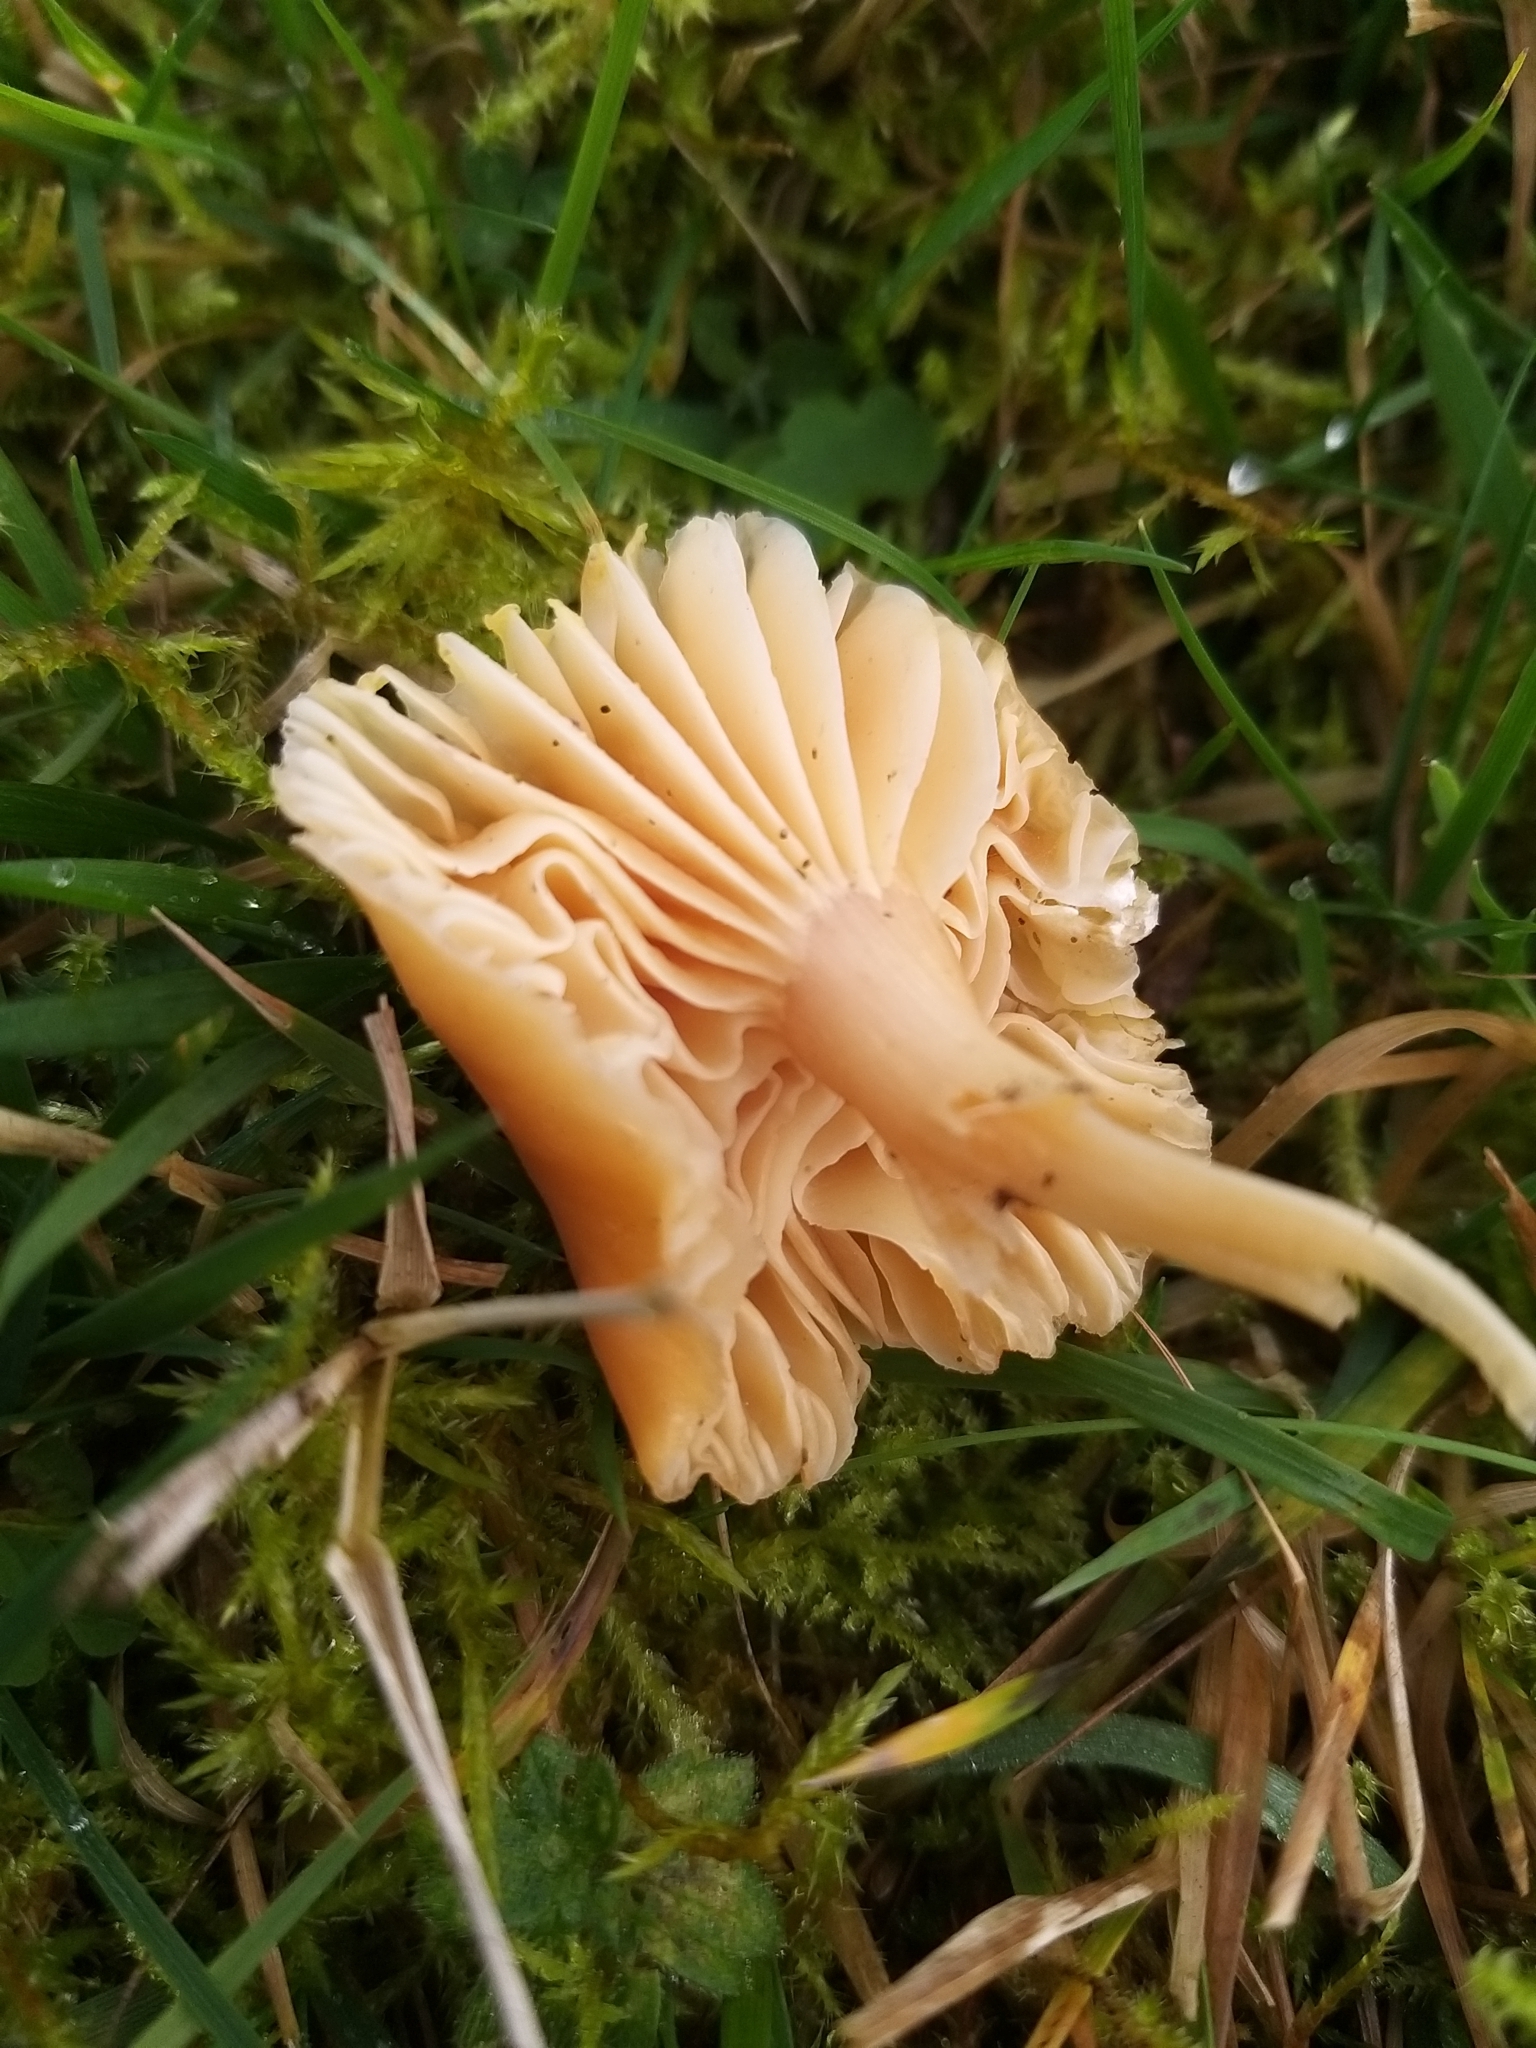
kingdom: Fungi
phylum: Basidiomycota
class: Agaricomycetes
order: Agaricales
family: Hygrophoraceae
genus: Cuphophyllus
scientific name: Cuphophyllus pratensis
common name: Meadow waxcap
